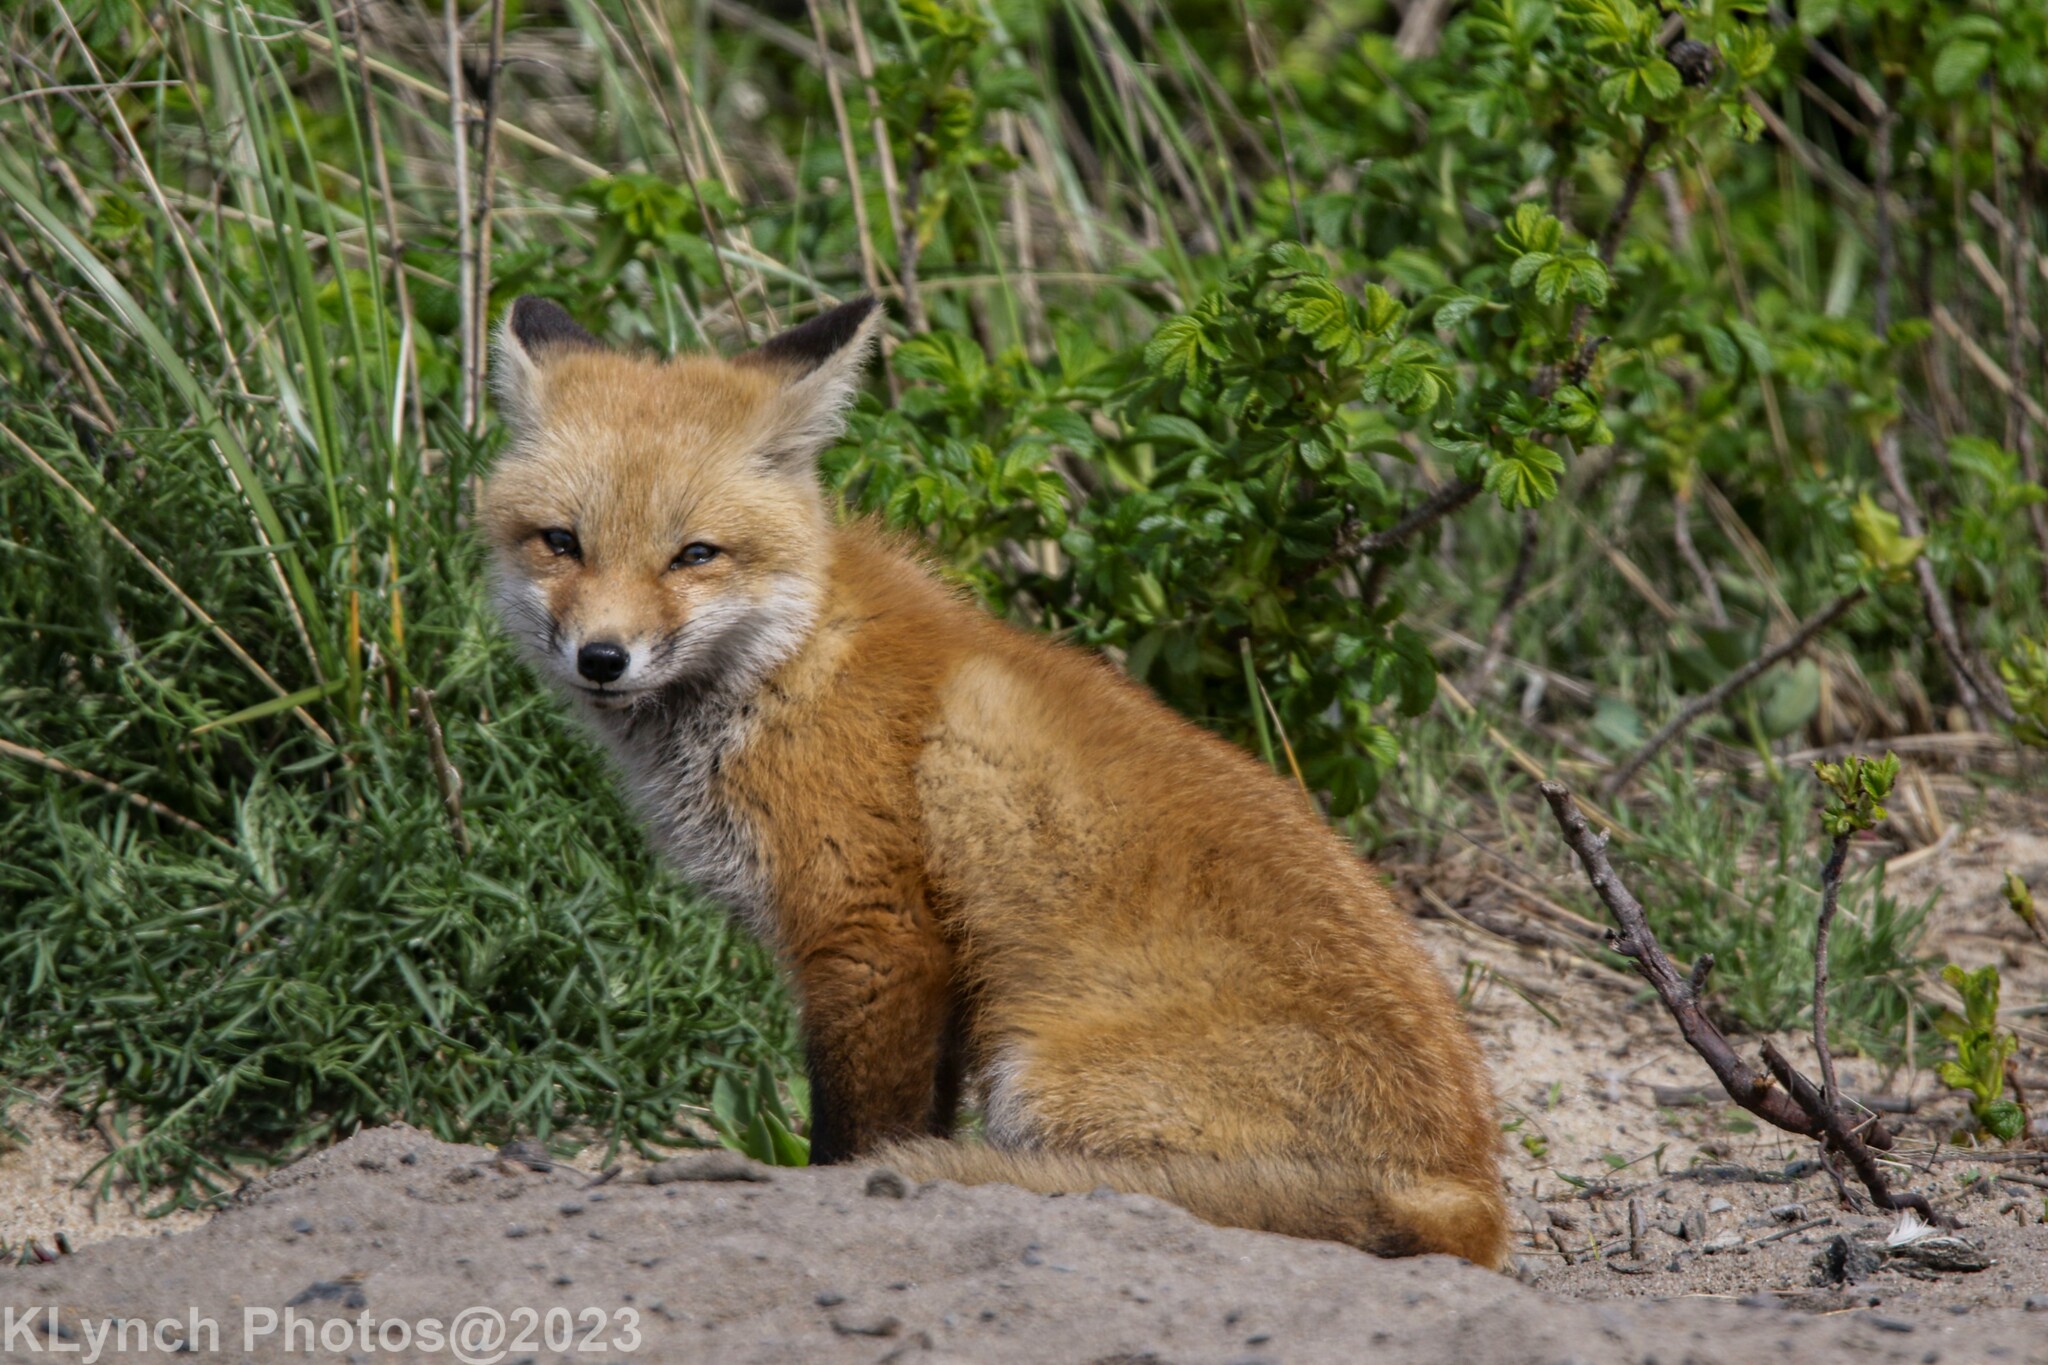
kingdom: Animalia
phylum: Chordata
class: Mammalia
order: Carnivora
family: Canidae
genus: Vulpes
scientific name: Vulpes vulpes
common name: Red fox
